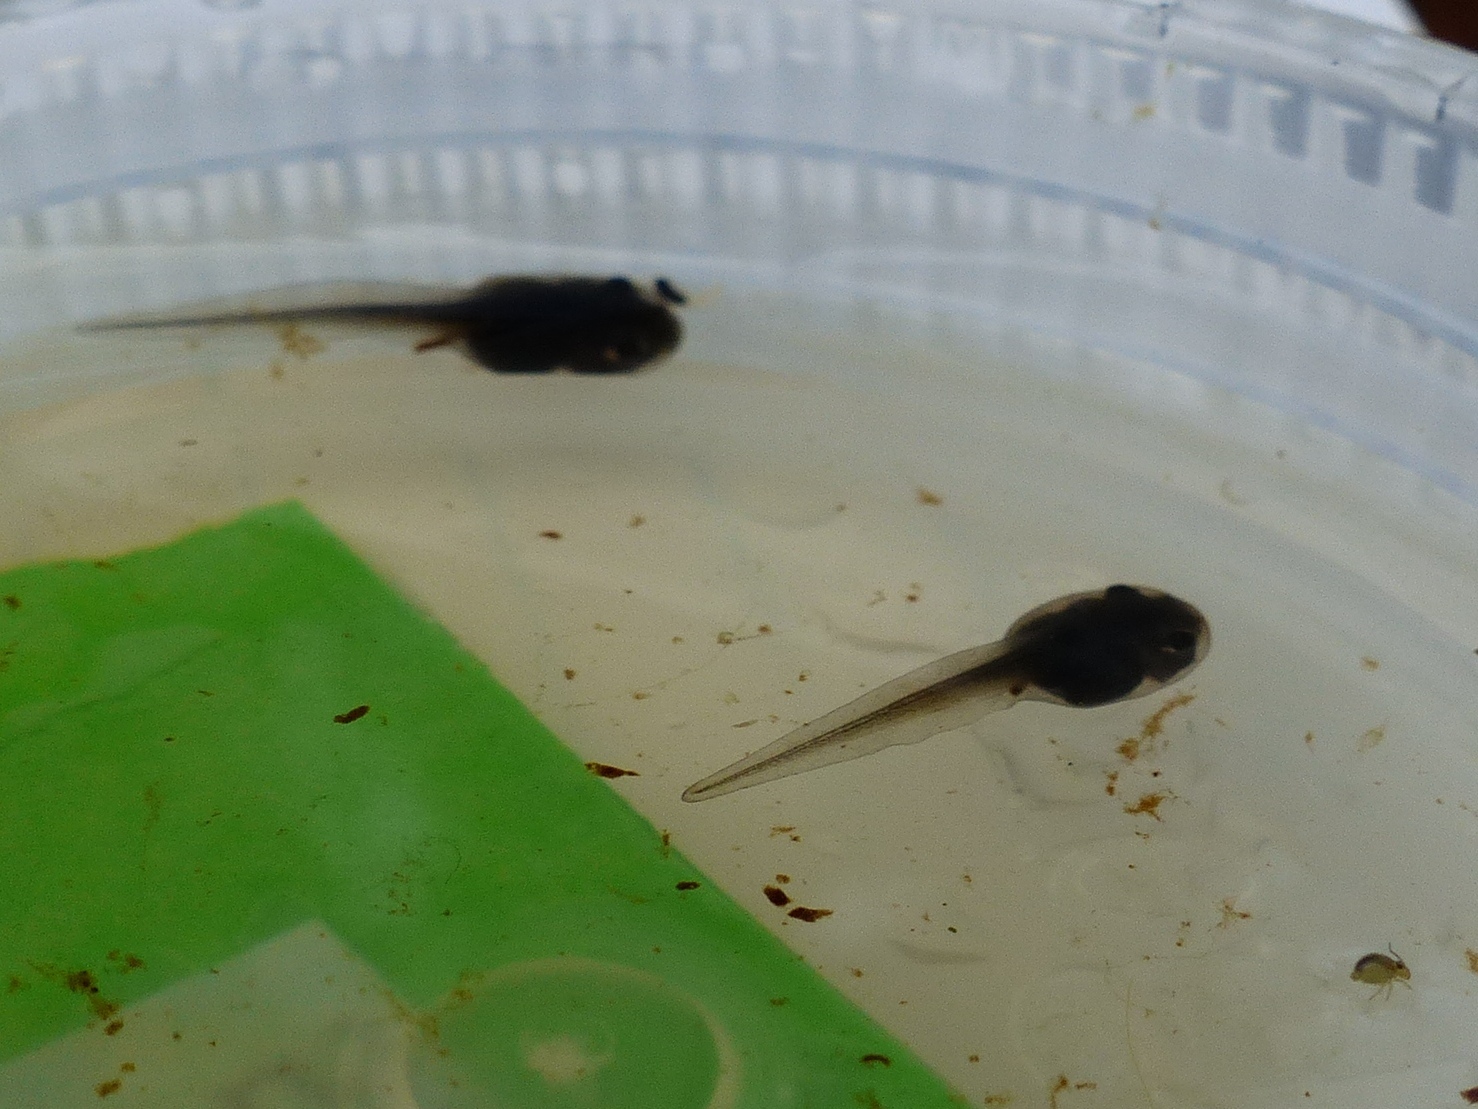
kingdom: Animalia
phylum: Chordata
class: Amphibia
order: Anura
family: Ranidae
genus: Lithobates
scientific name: Lithobates sylvaticus
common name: Wood frog
